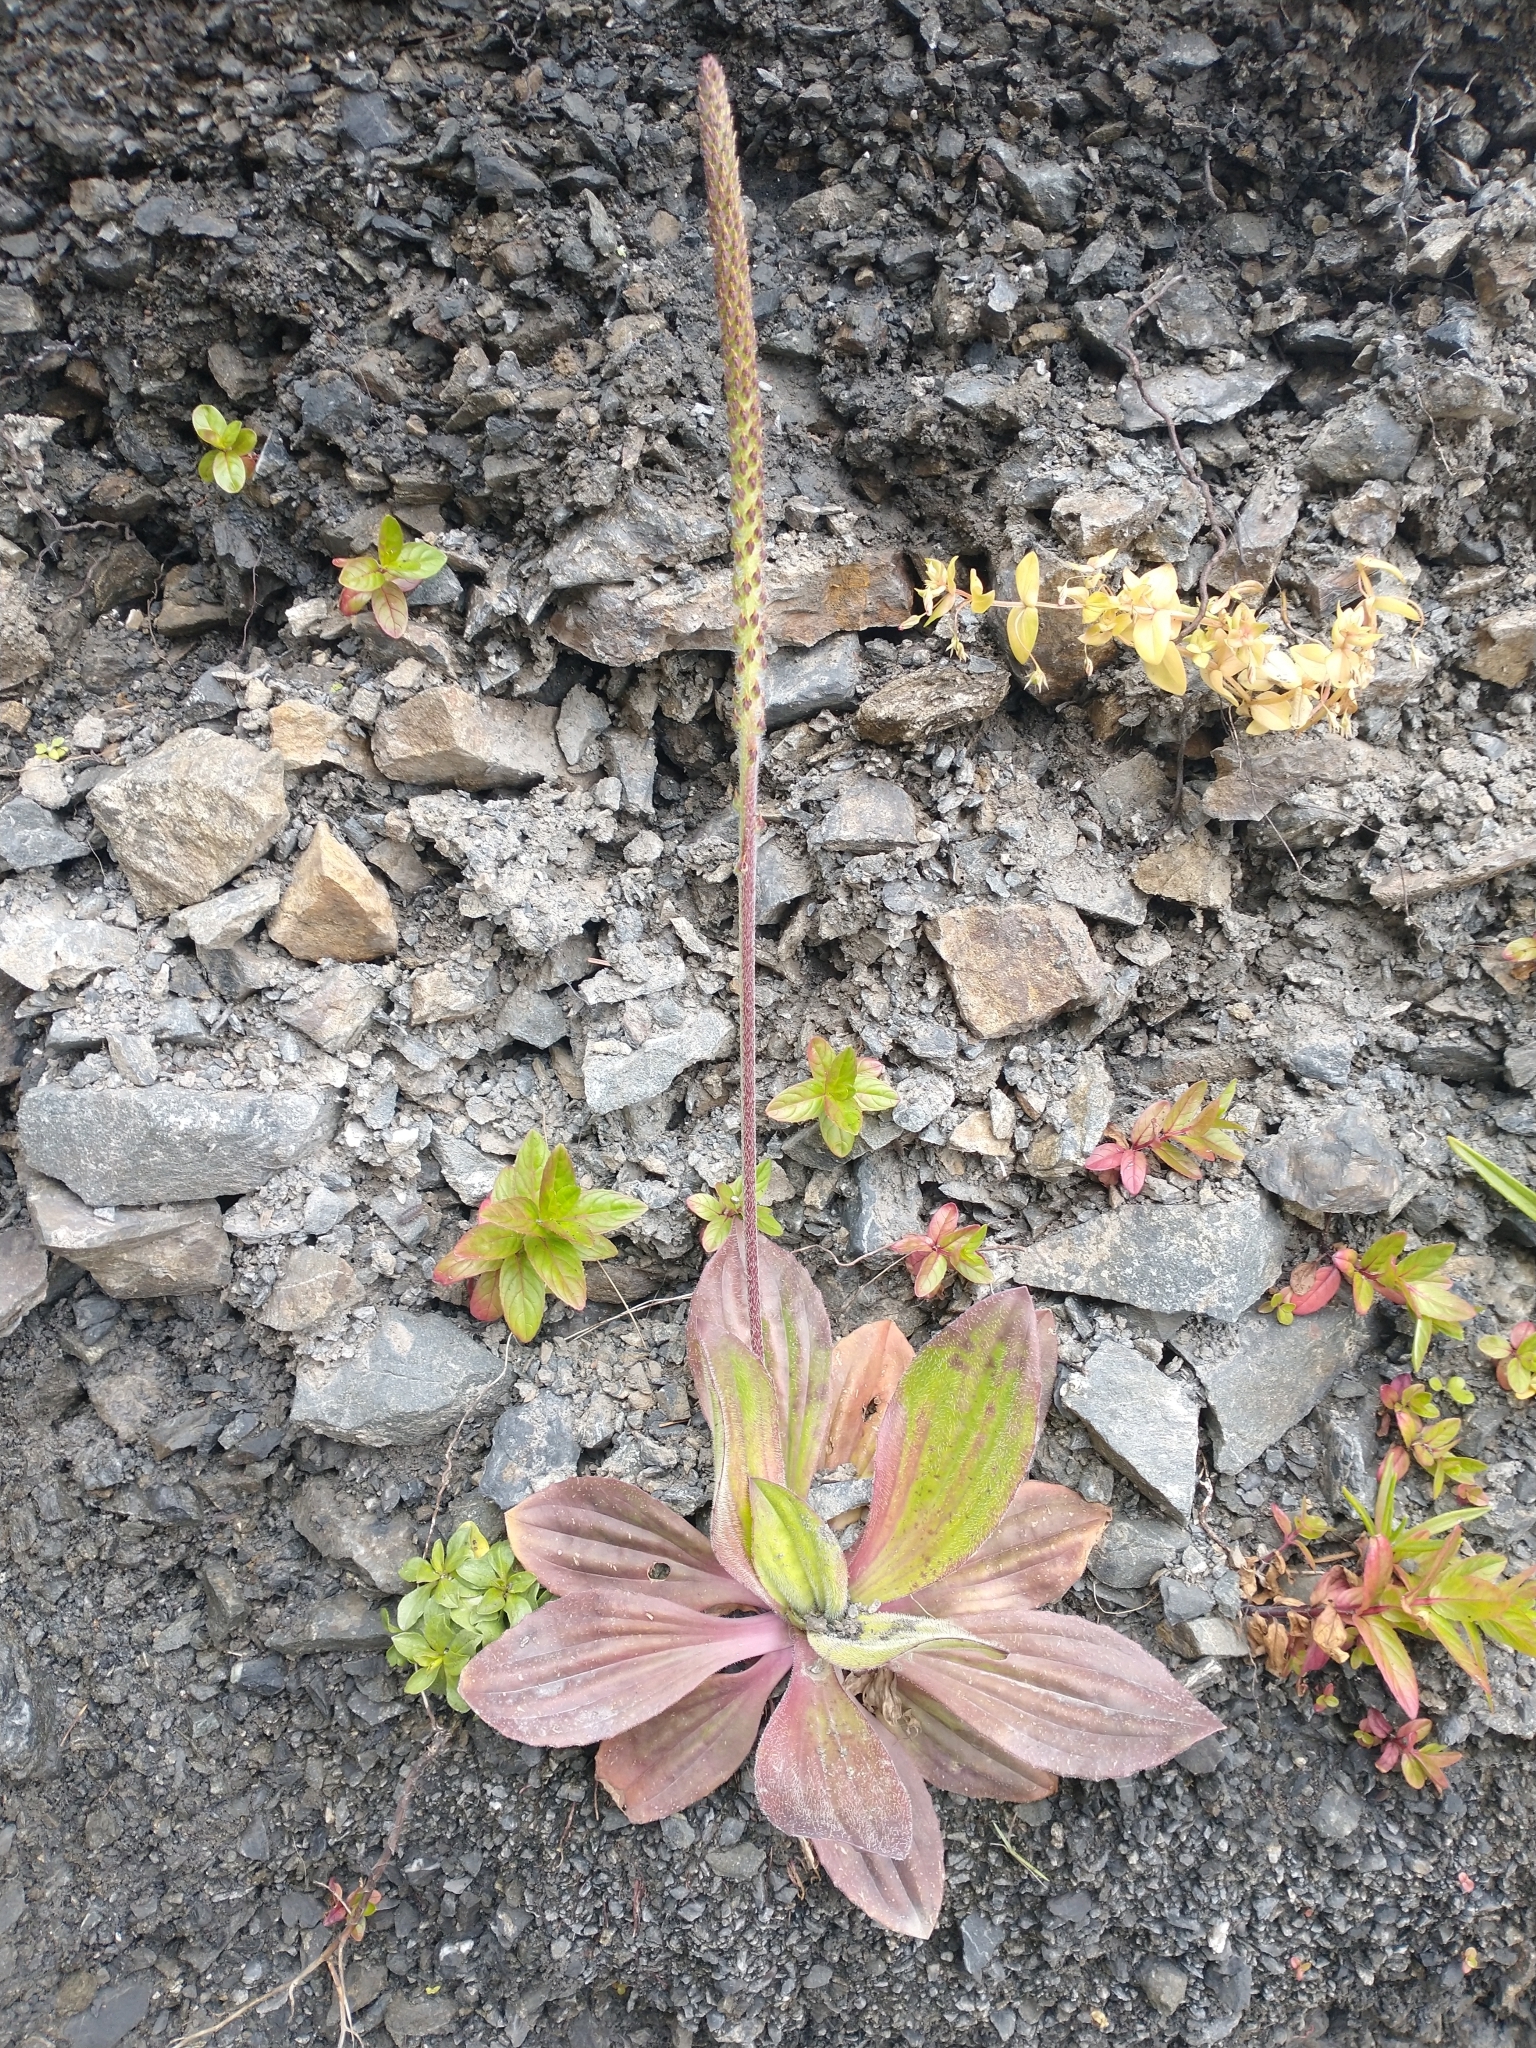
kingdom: Plantae
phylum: Tracheophyta
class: Magnoliopsida
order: Lamiales
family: Plantaginaceae
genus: Plantago
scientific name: Plantago subnuda
